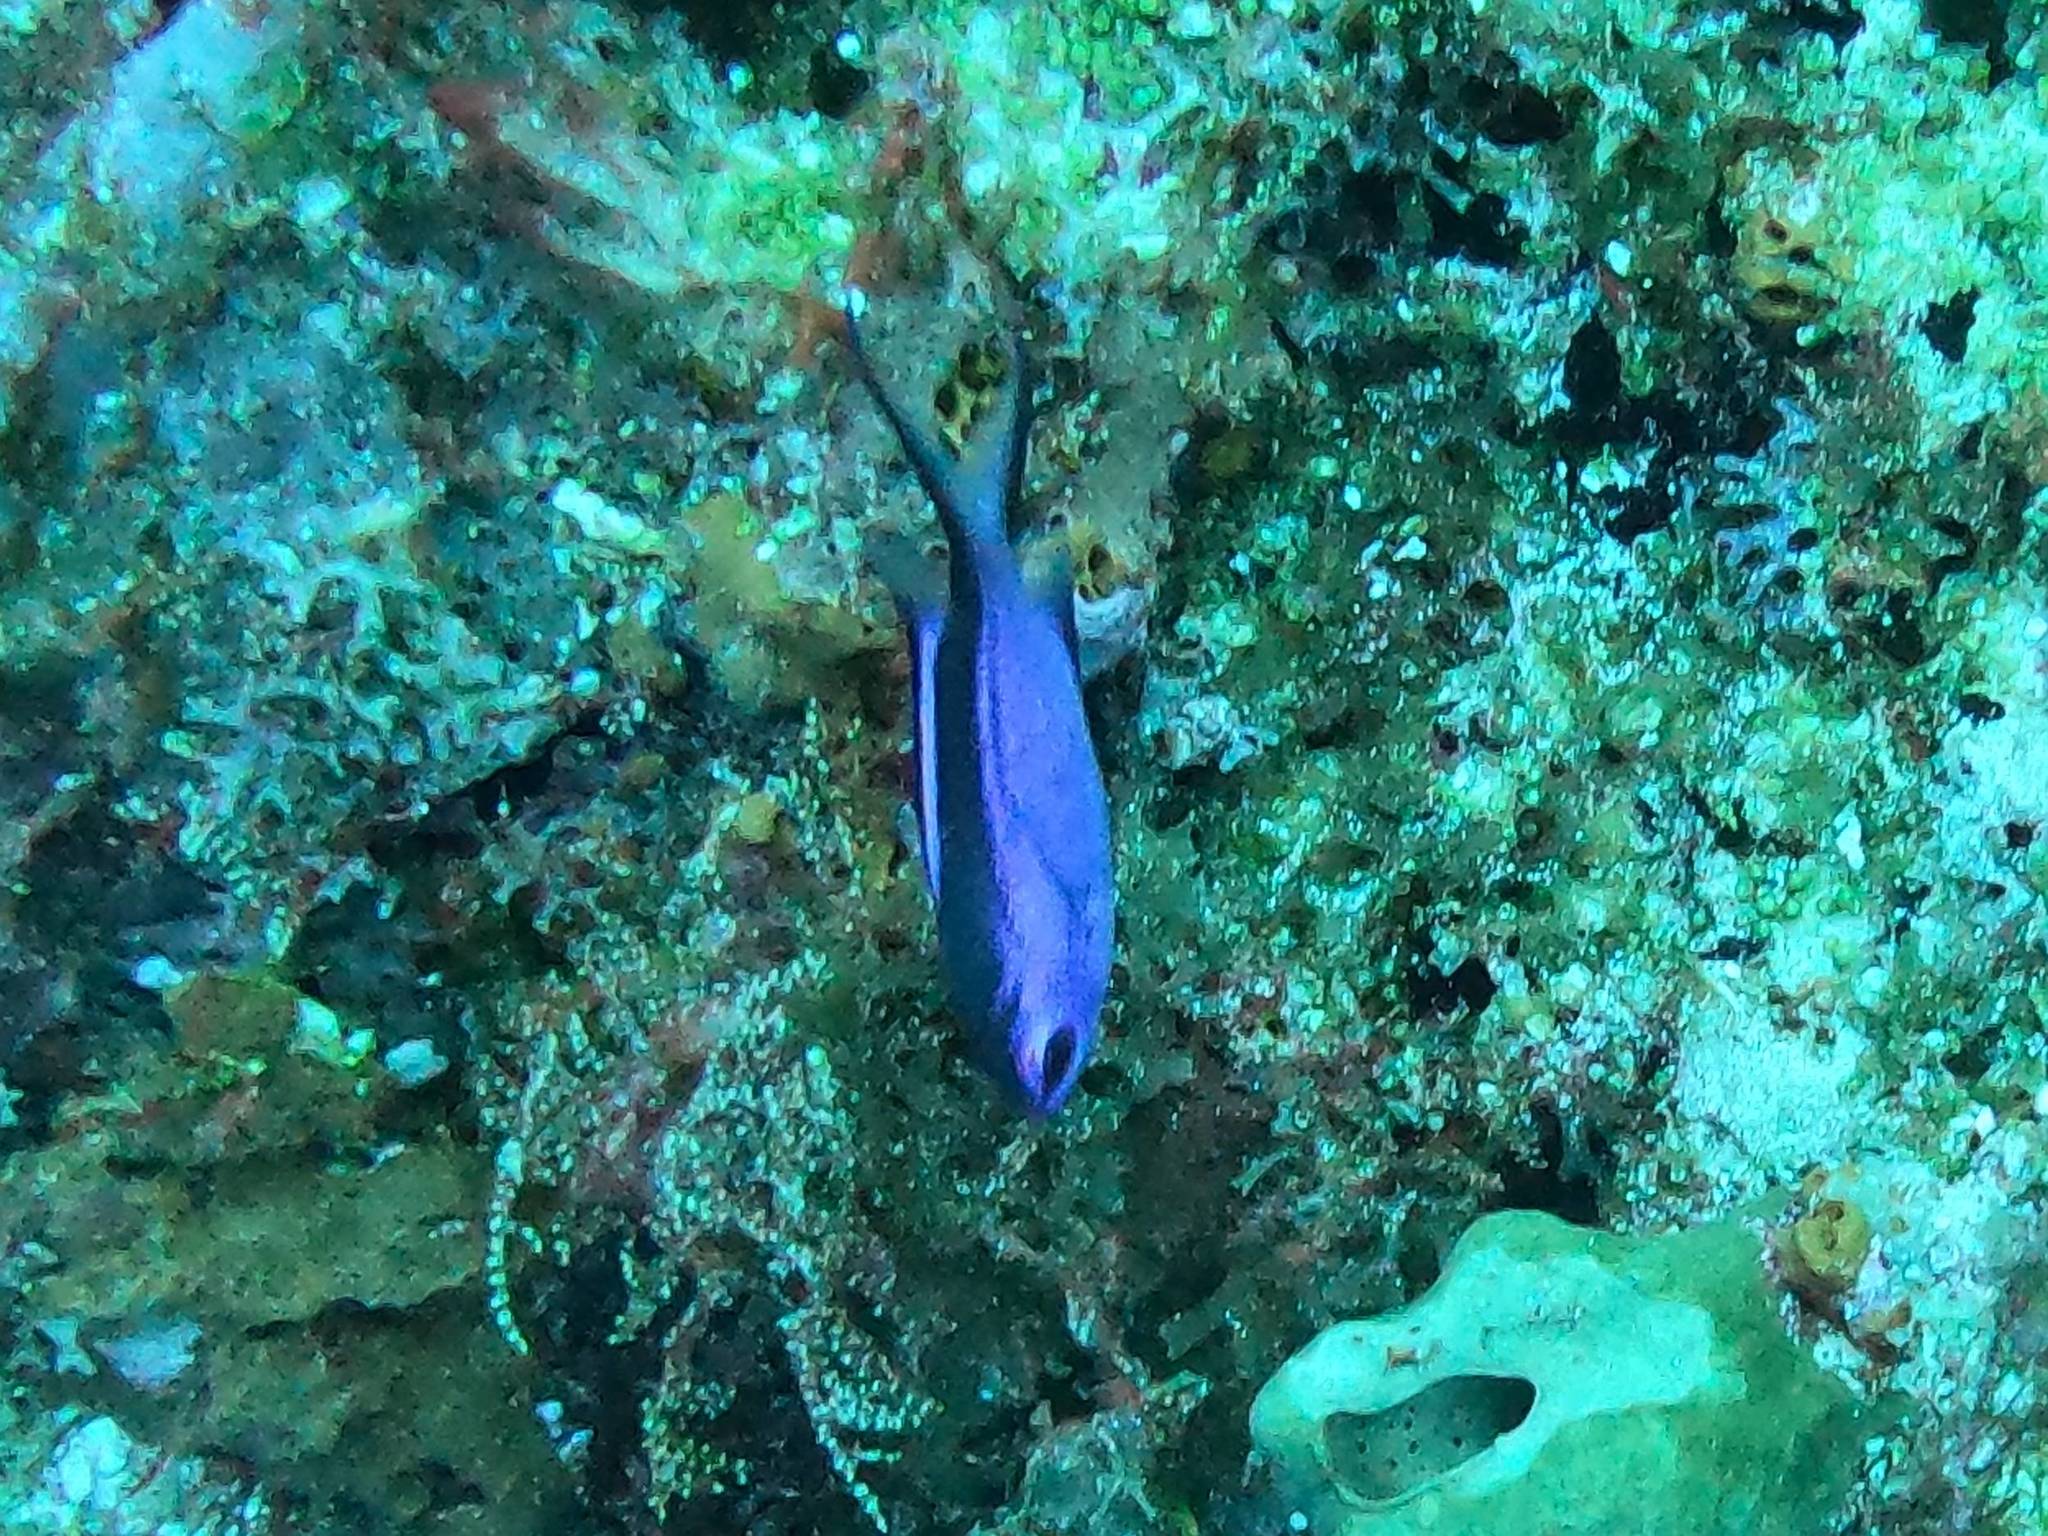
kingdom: Animalia
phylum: Chordata
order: Perciformes
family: Pomacentridae
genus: Chromis
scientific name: Chromis cyanea
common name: Blue chromis
